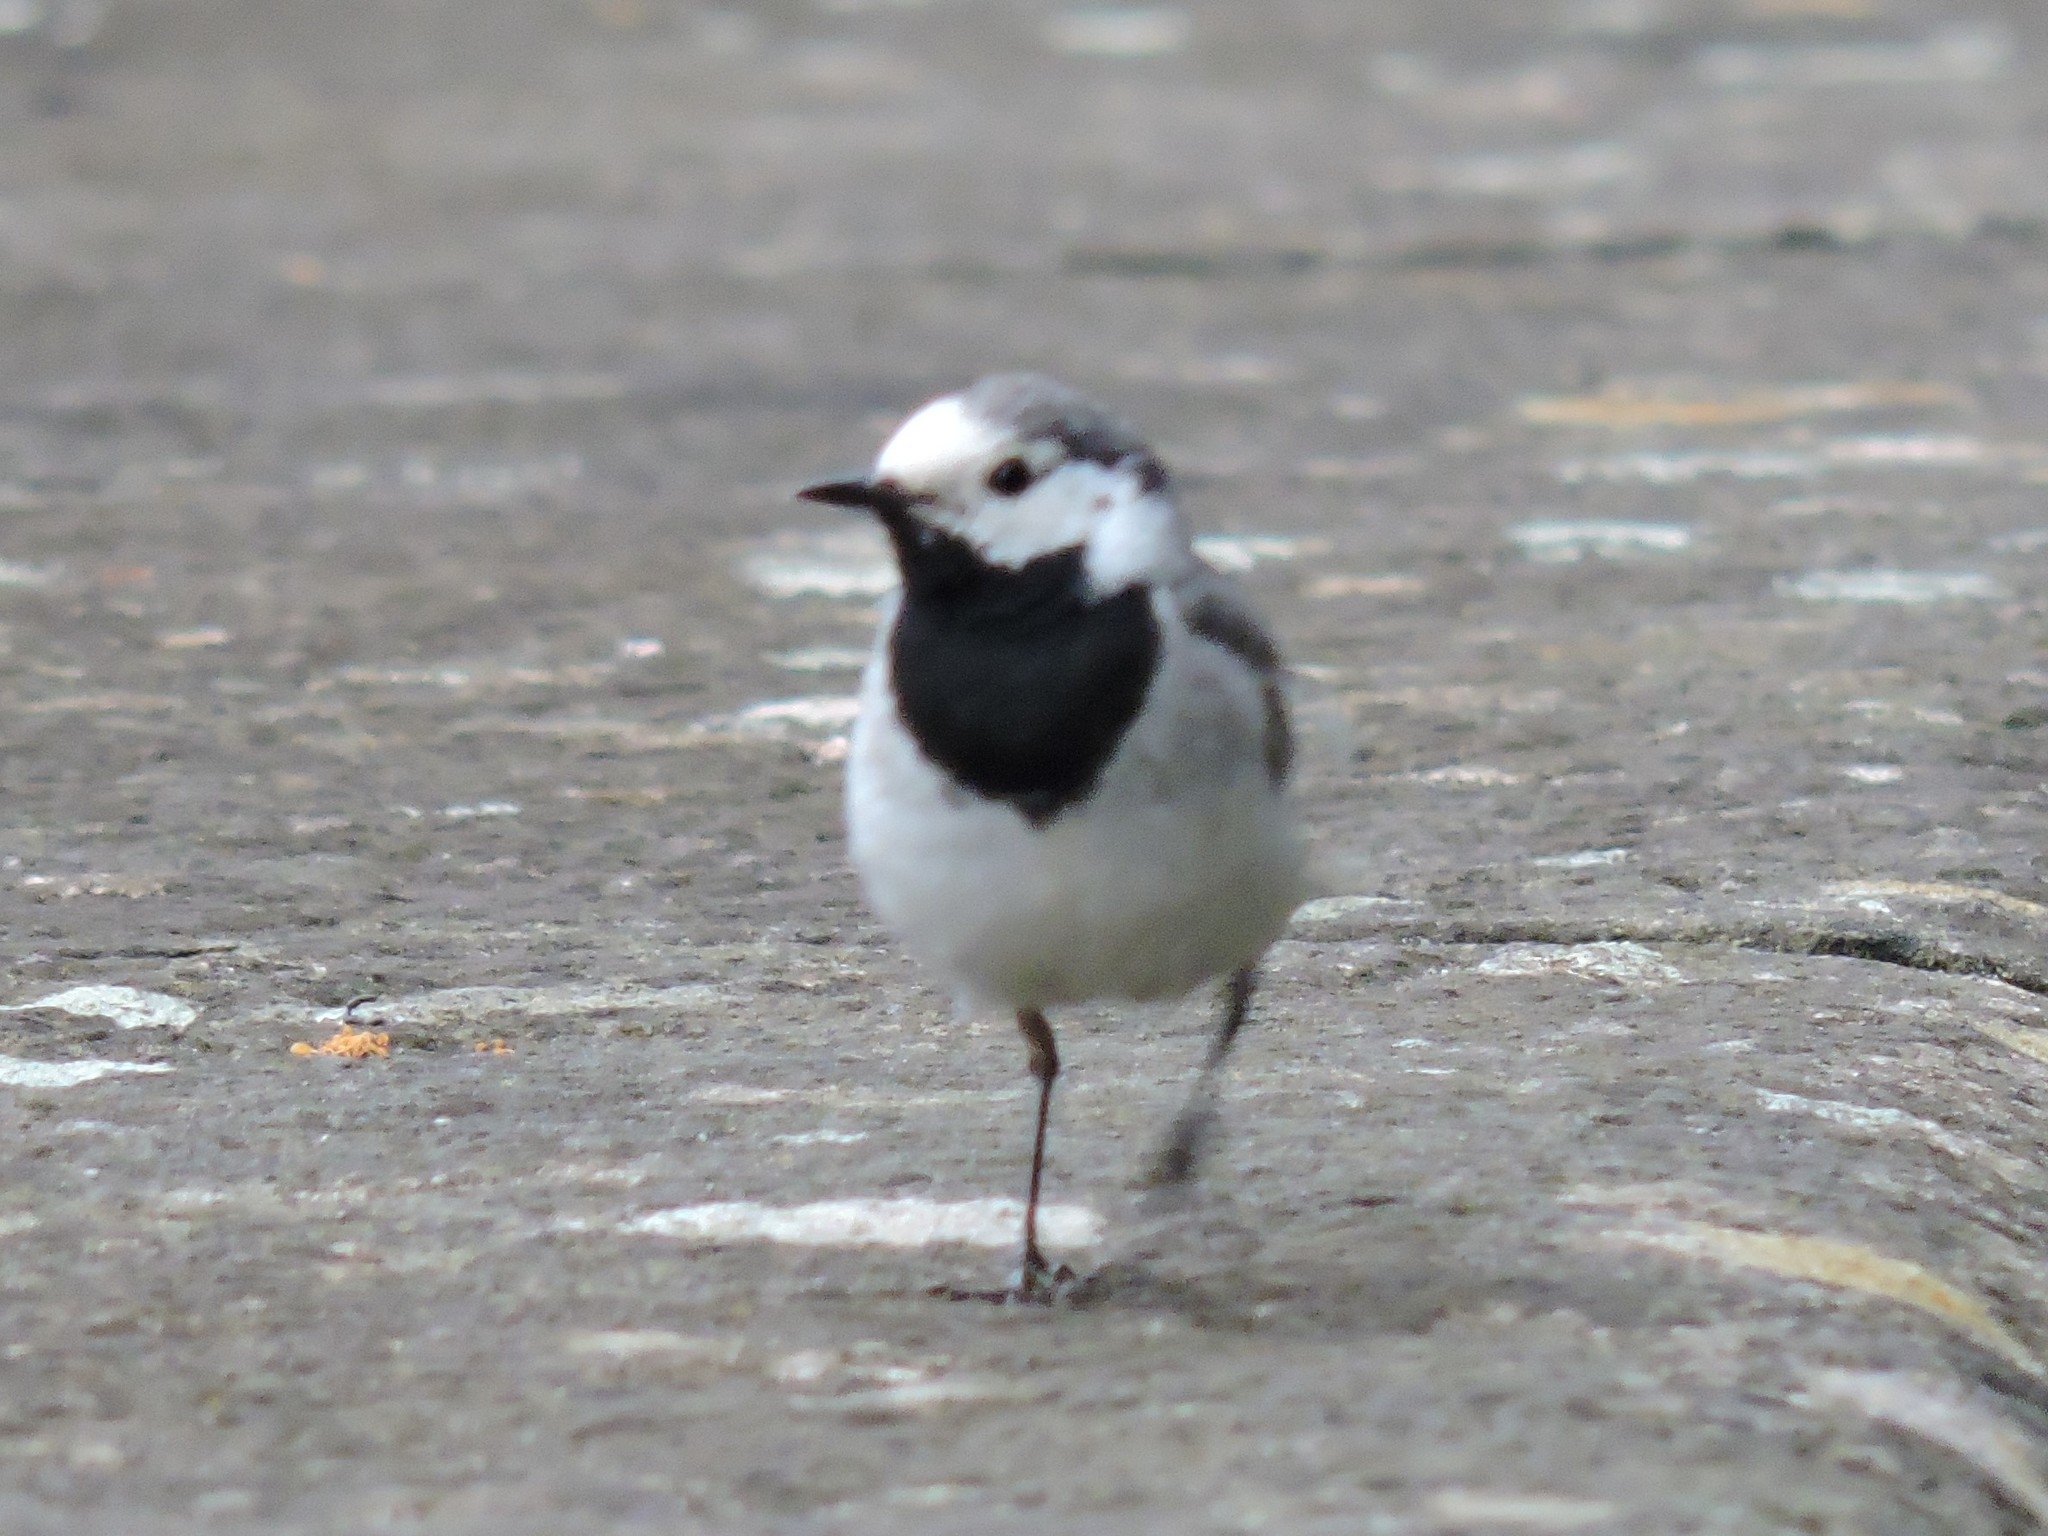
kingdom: Animalia
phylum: Chordata
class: Aves
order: Passeriformes
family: Motacillidae
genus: Motacilla
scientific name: Motacilla alba
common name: White wagtail
